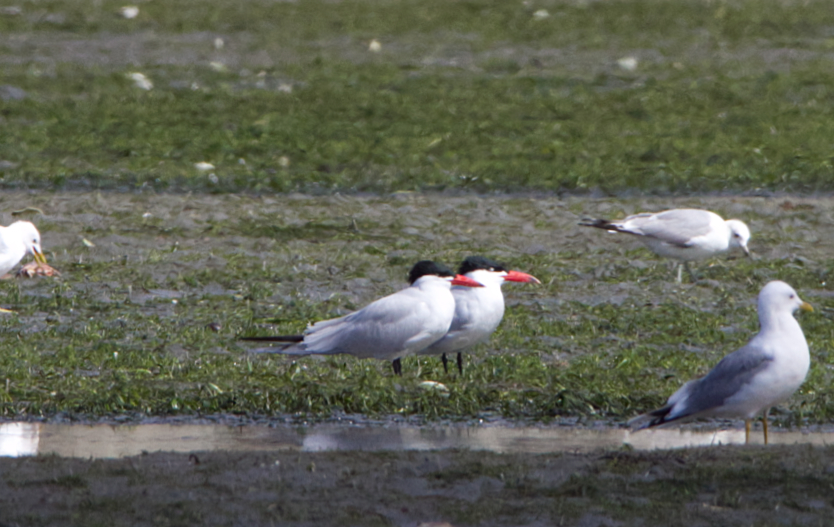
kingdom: Animalia
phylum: Chordata
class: Aves
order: Charadriiformes
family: Laridae
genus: Hydroprogne
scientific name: Hydroprogne caspia
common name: Caspian tern
